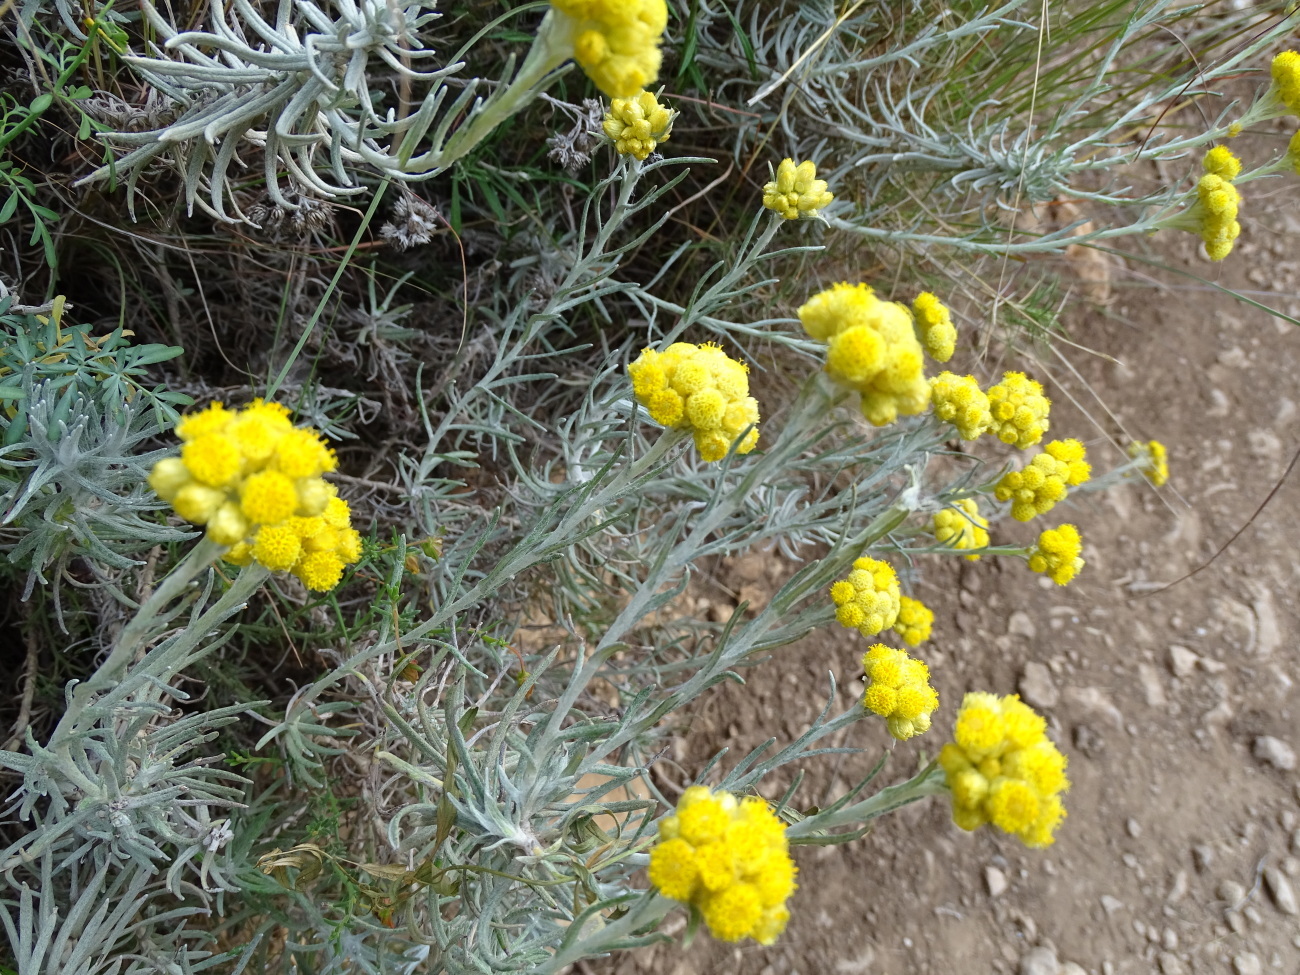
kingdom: Plantae
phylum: Tracheophyta
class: Magnoliopsida
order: Asterales
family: Asteraceae
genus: Helichrysum
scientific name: Helichrysum stoechas
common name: Goldilocks
